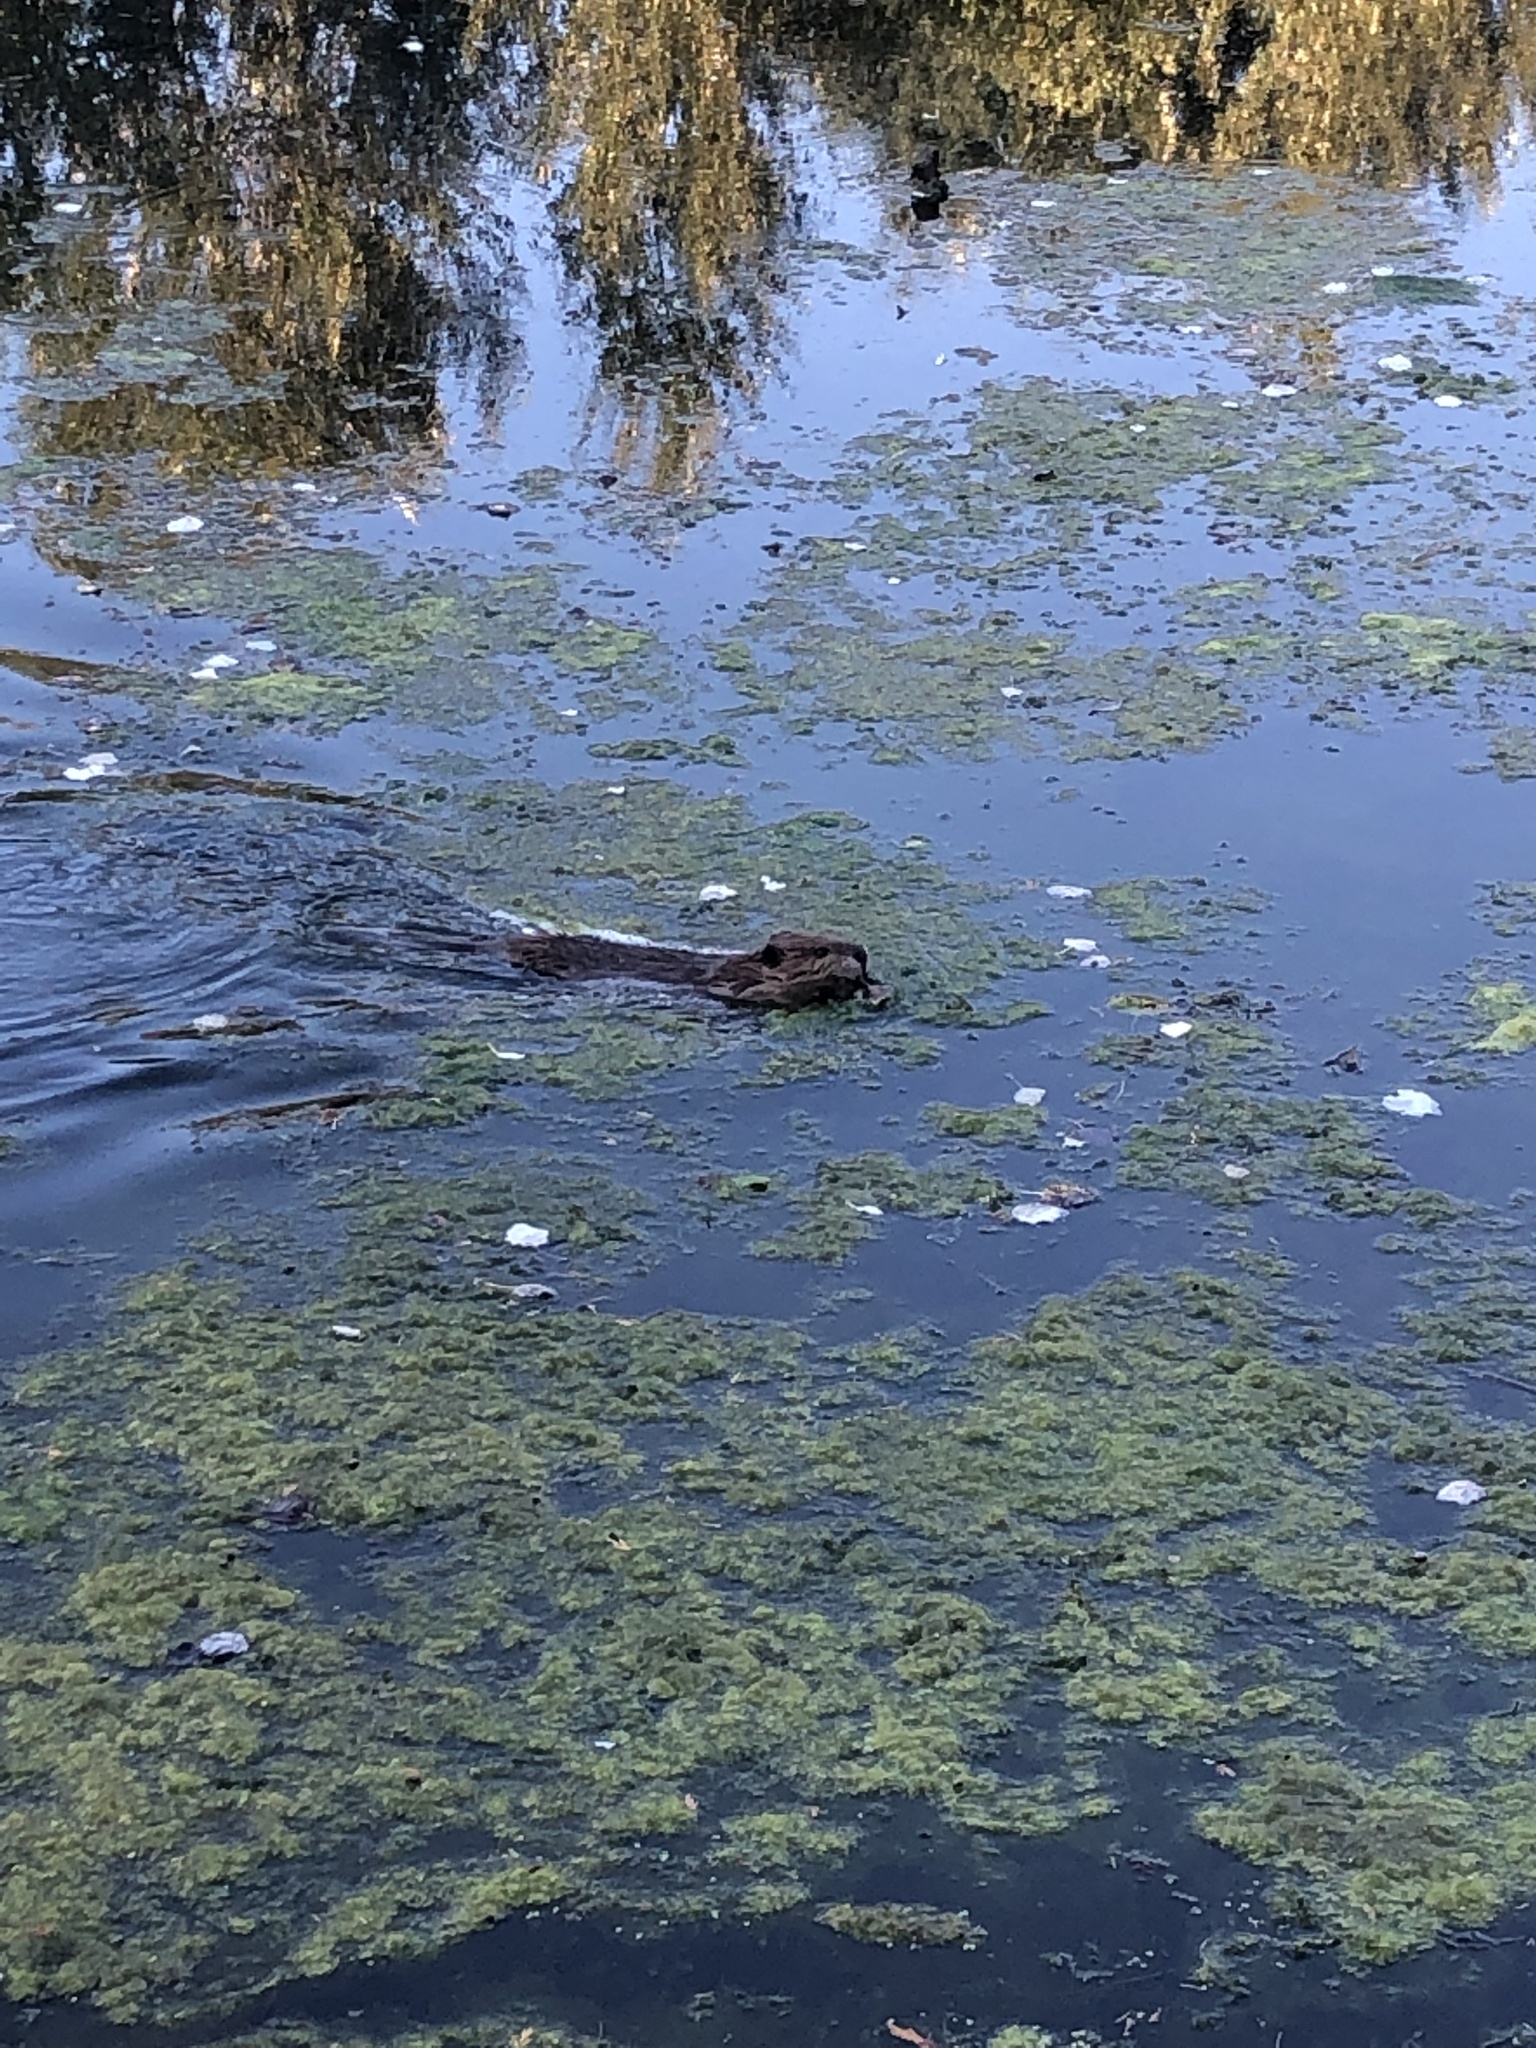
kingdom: Animalia
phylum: Chordata
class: Mammalia
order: Rodentia
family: Castoridae
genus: Castor
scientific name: Castor canadensis
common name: American beaver
